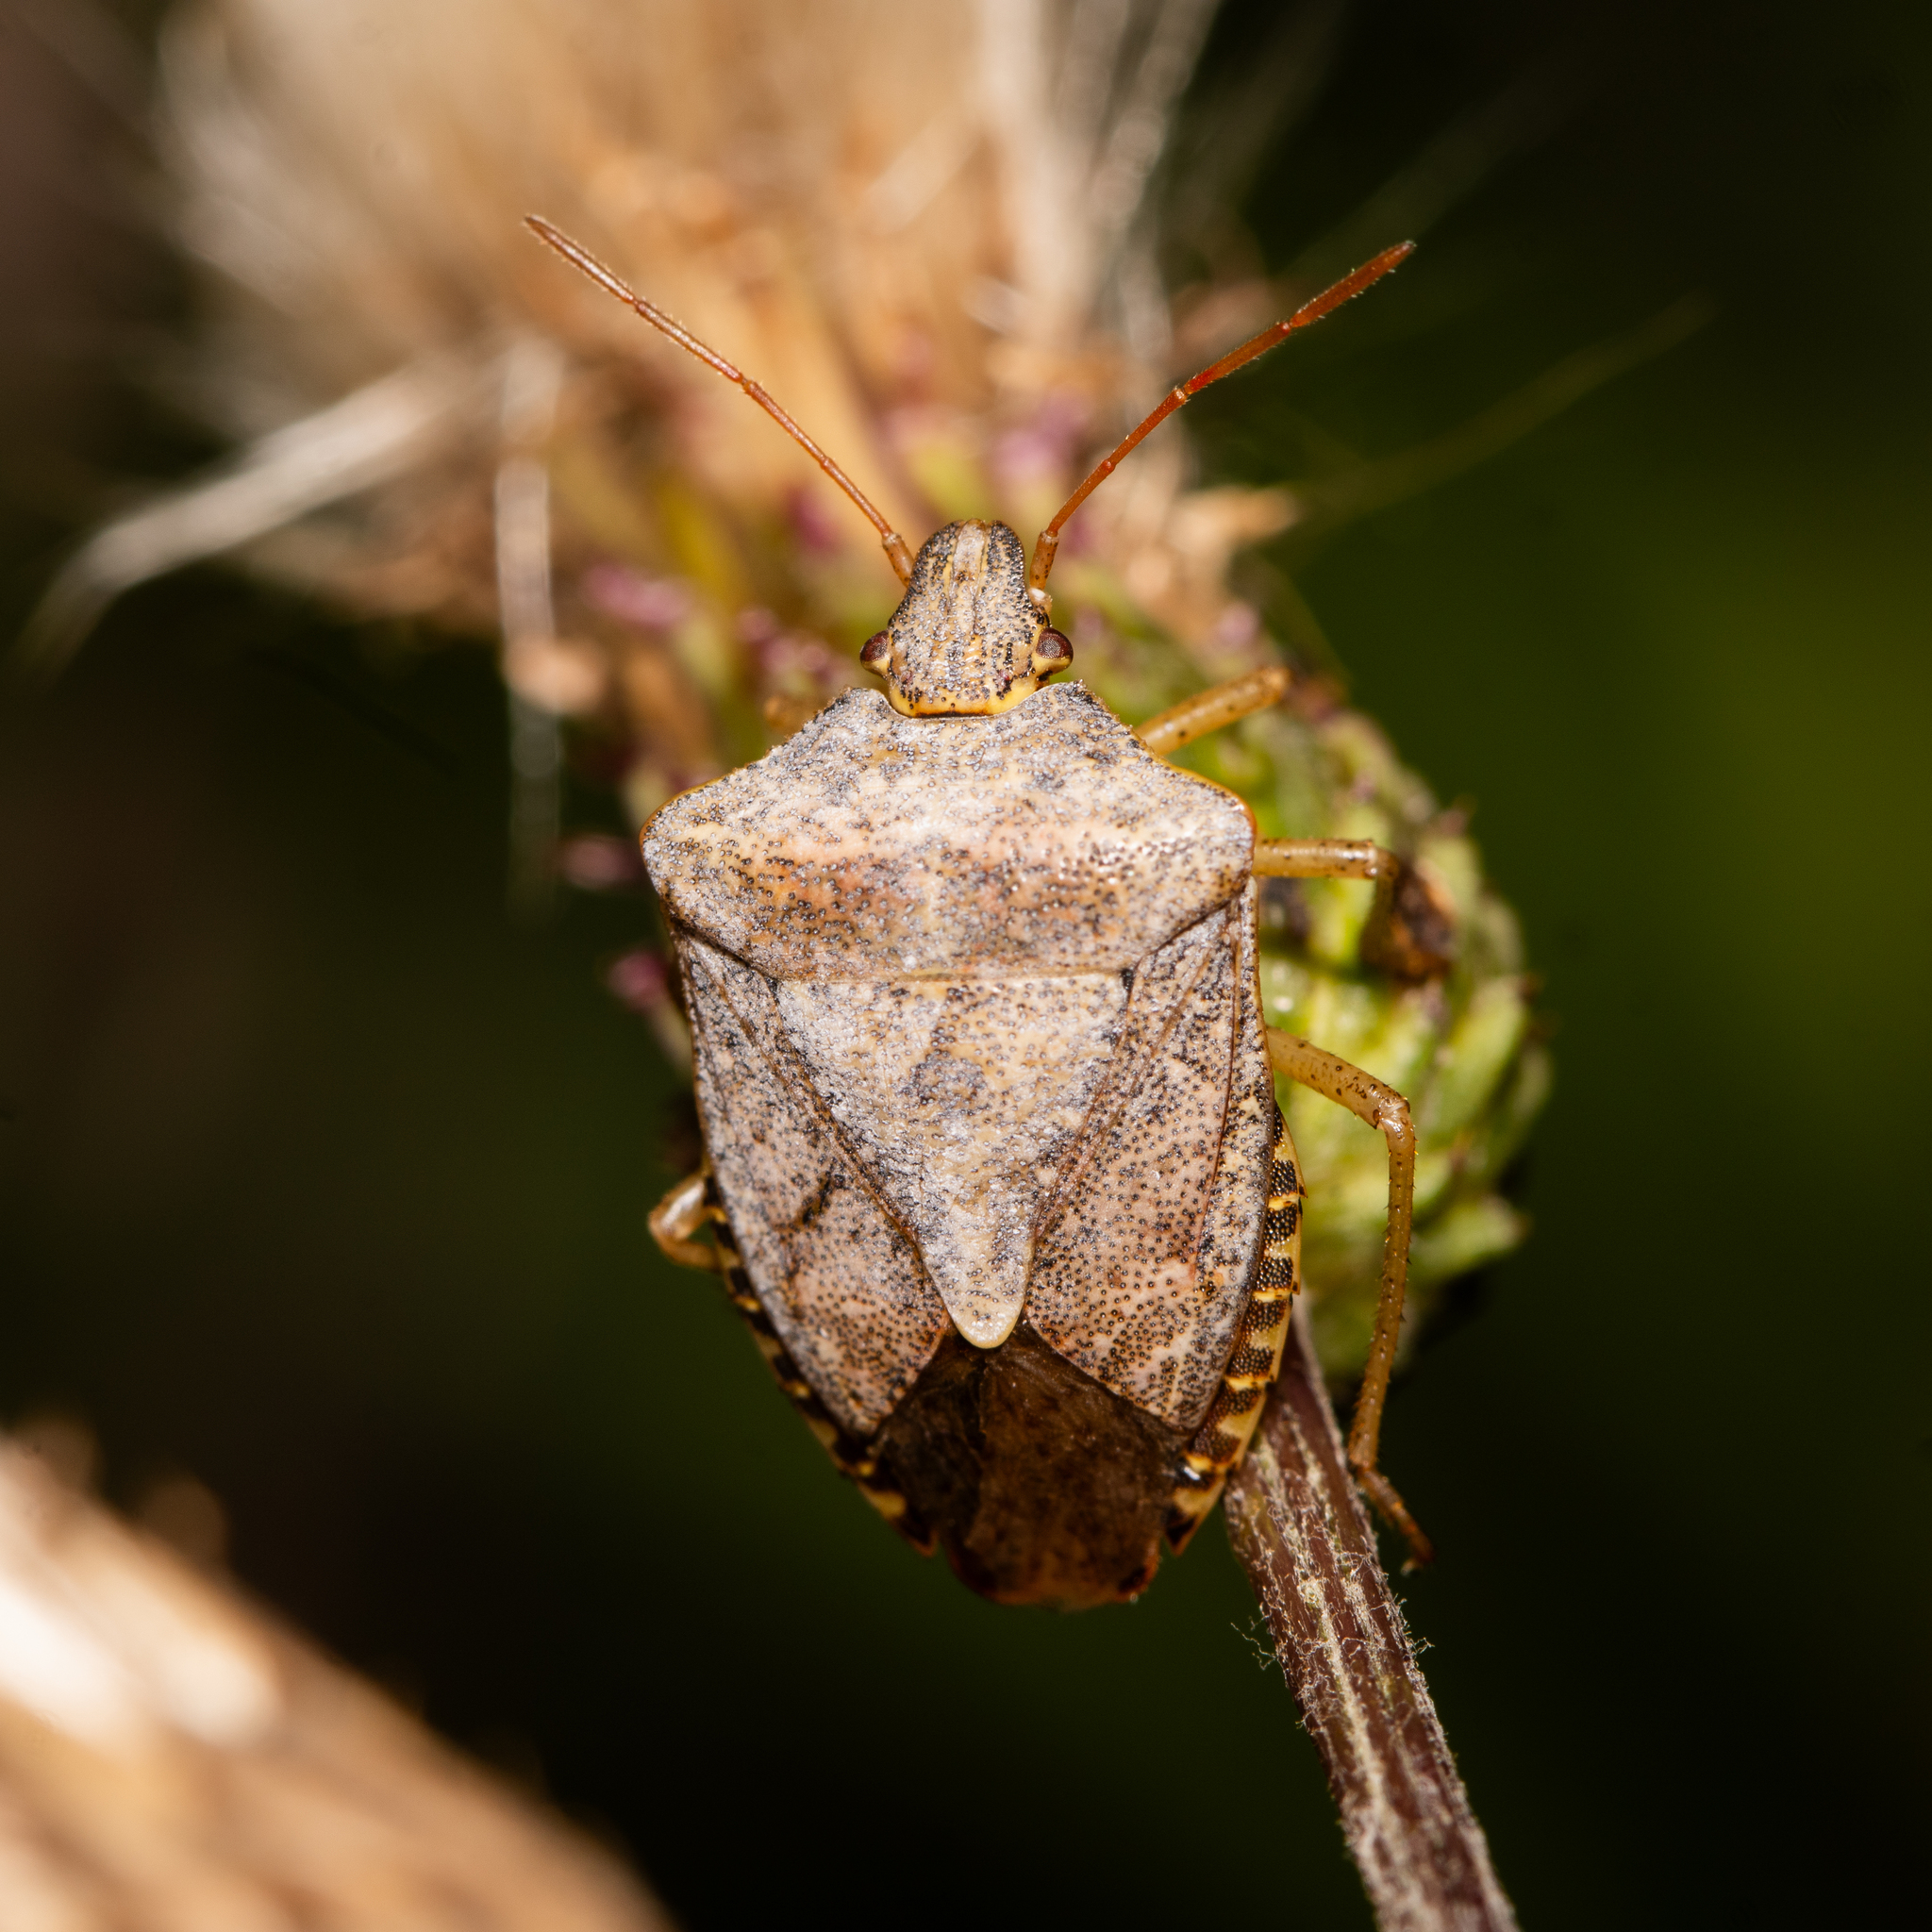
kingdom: Animalia
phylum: Arthropoda
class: Insecta
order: Hemiptera
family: Pentatomidae
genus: Euschistus
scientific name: Euschistus servus
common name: Brown stink bug
